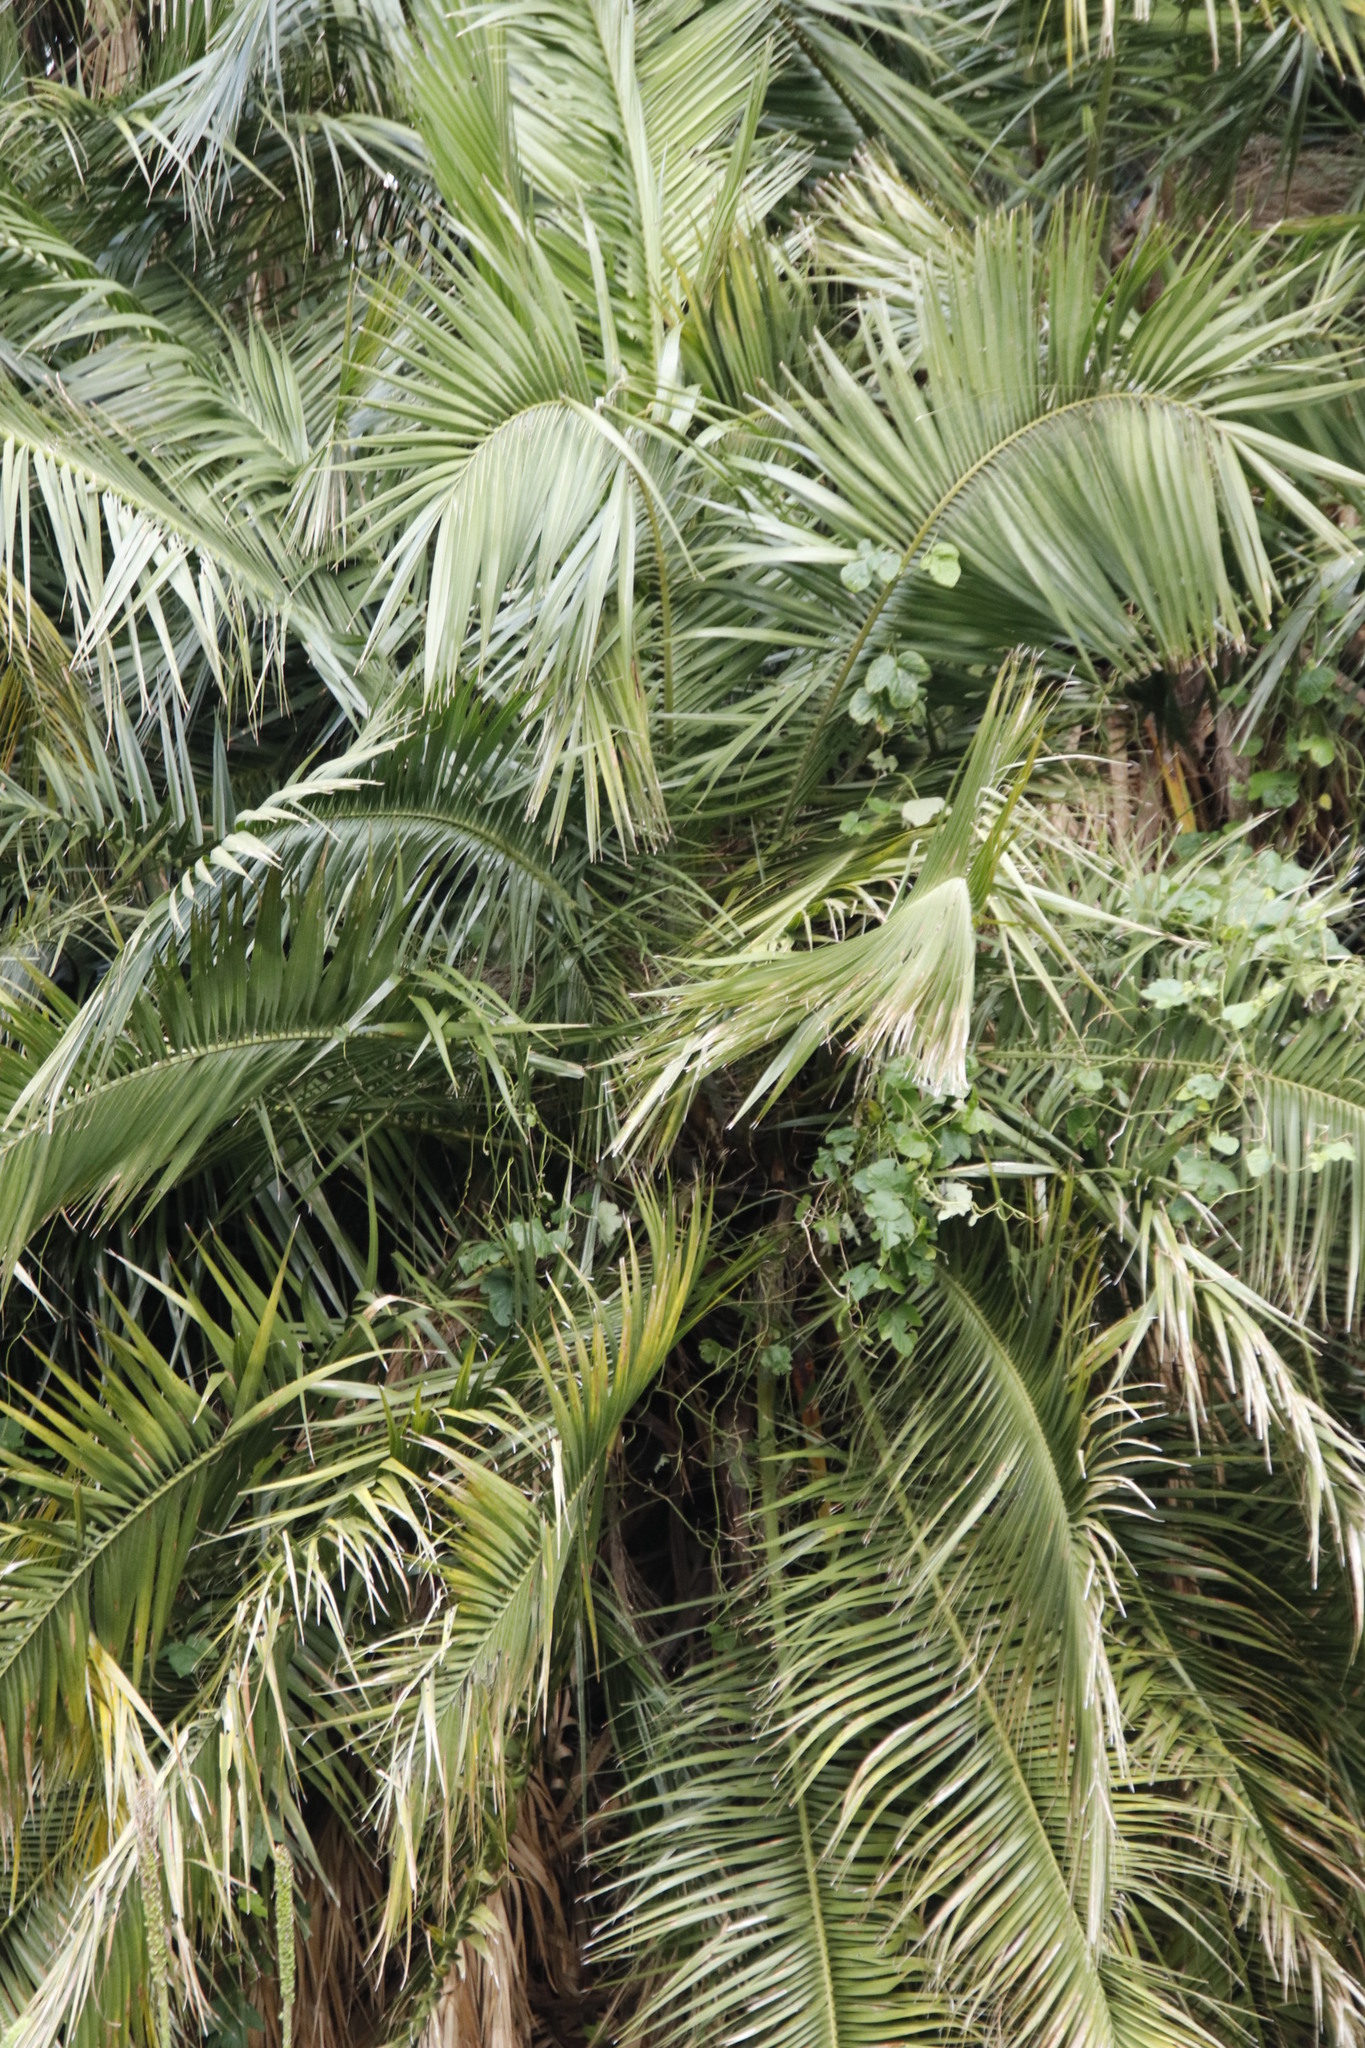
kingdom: Plantae
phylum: Tracheophyta
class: Liliopsida
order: Arecales
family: Arecaceae
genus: Phoenix
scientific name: Phoenix reclinata
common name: Senegal date palm
